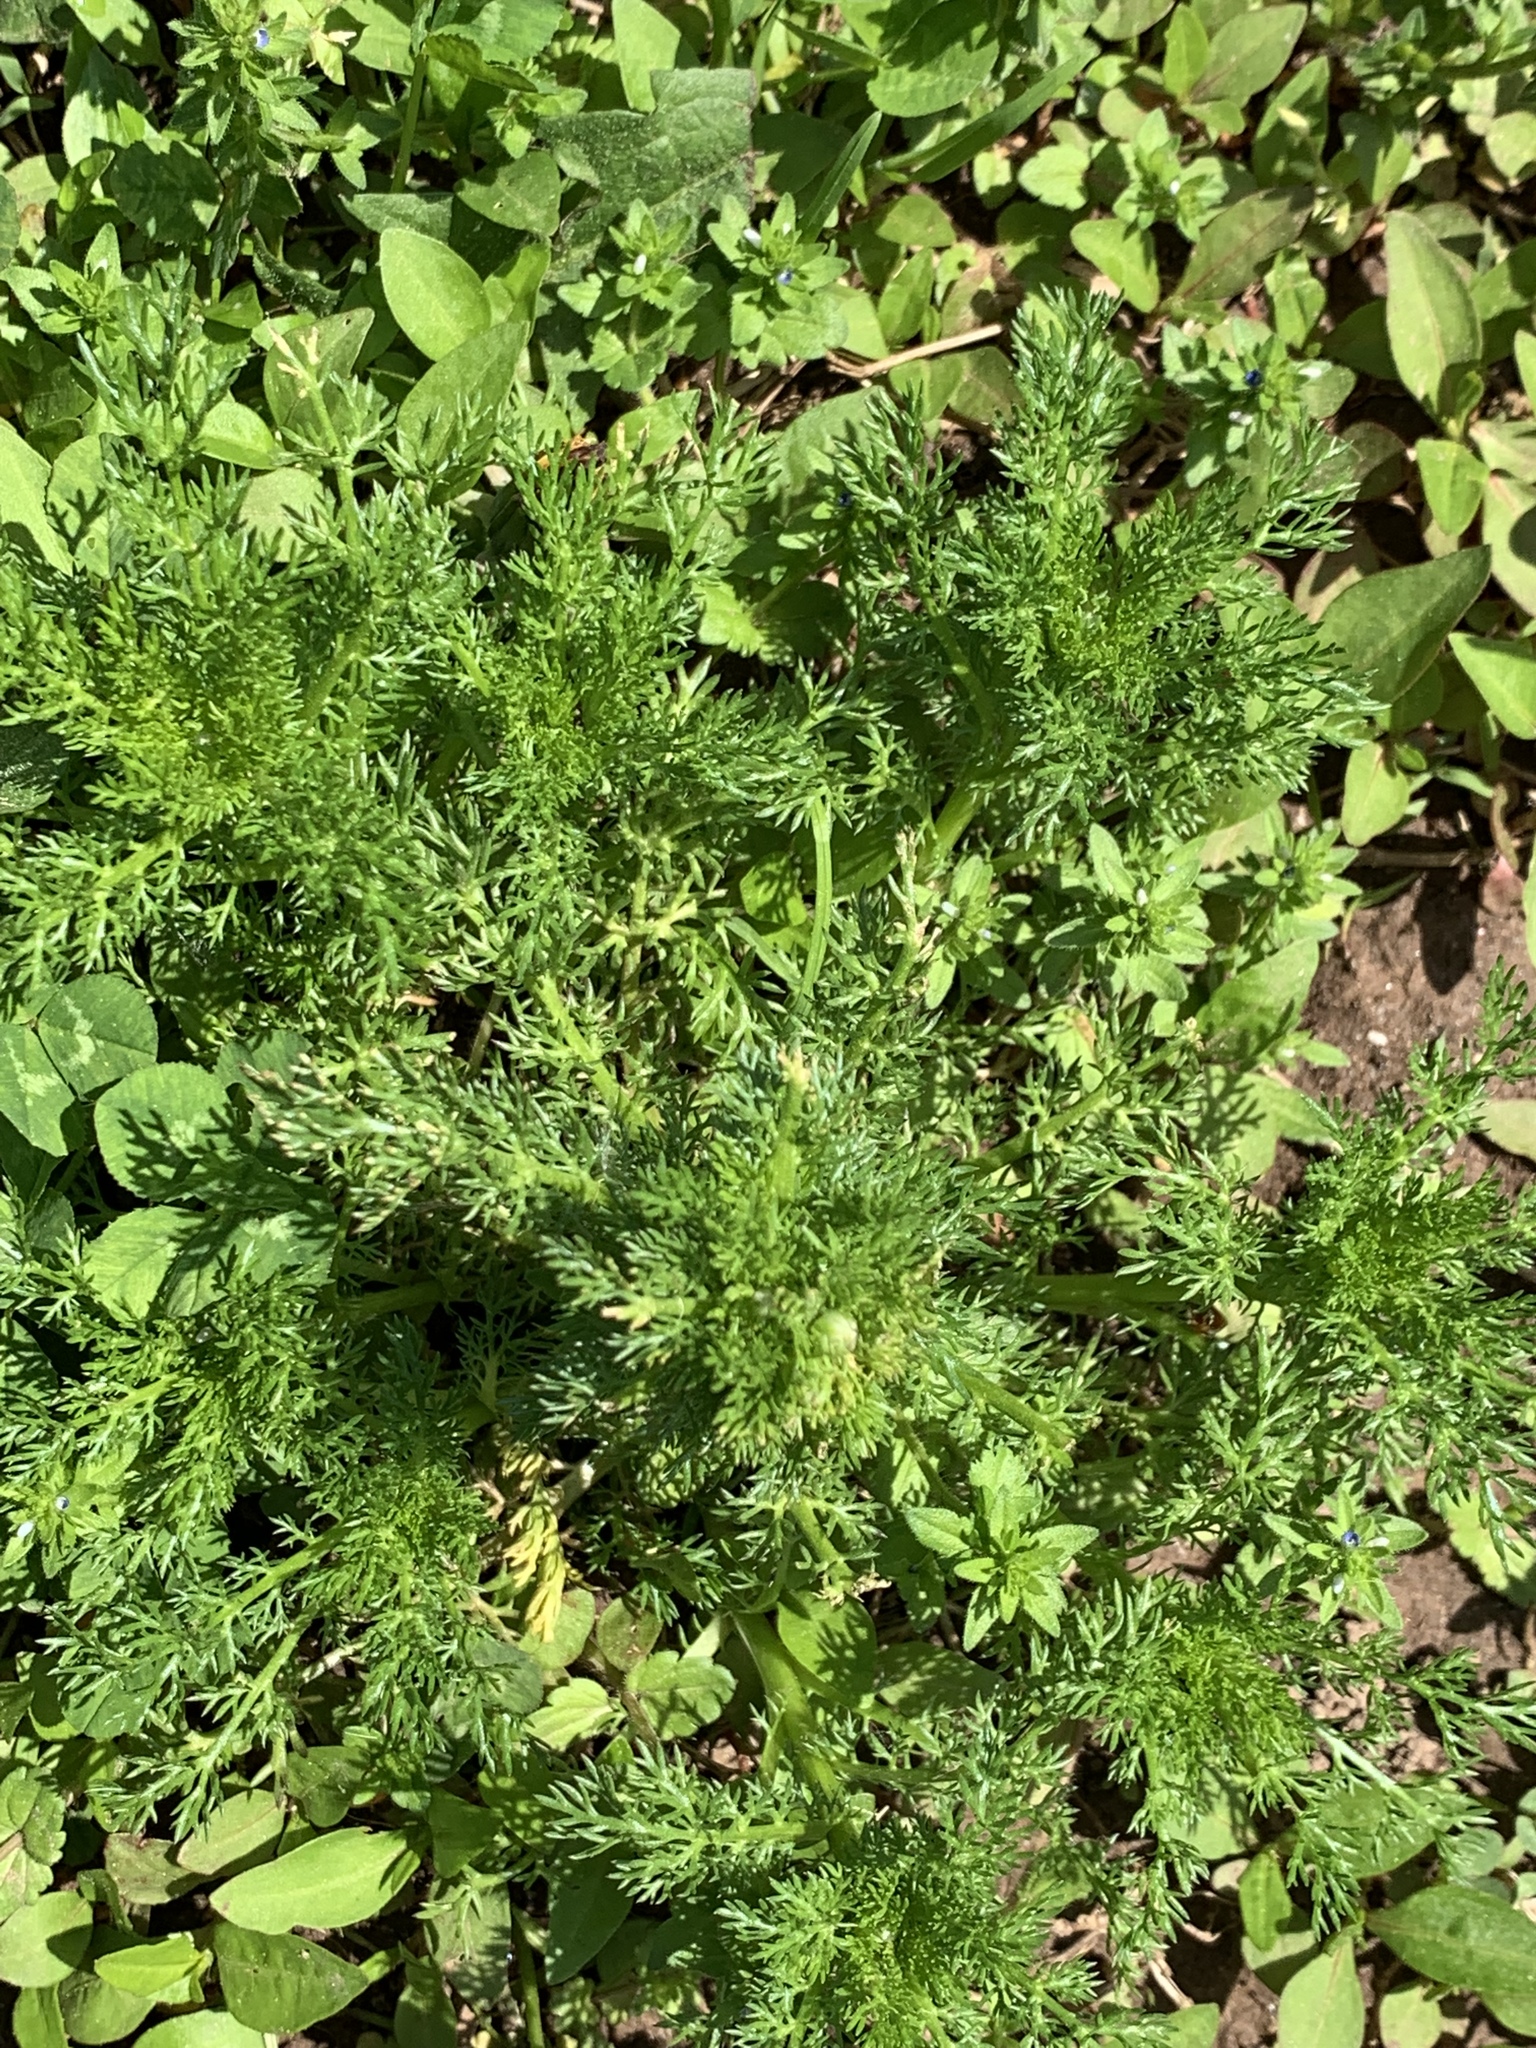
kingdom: Plantae
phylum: Tracheophyta
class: Magnoliopsida
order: Asterales
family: Asteraceae
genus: Matricaria
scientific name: Matricaria discoidea
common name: Disc mayweed
